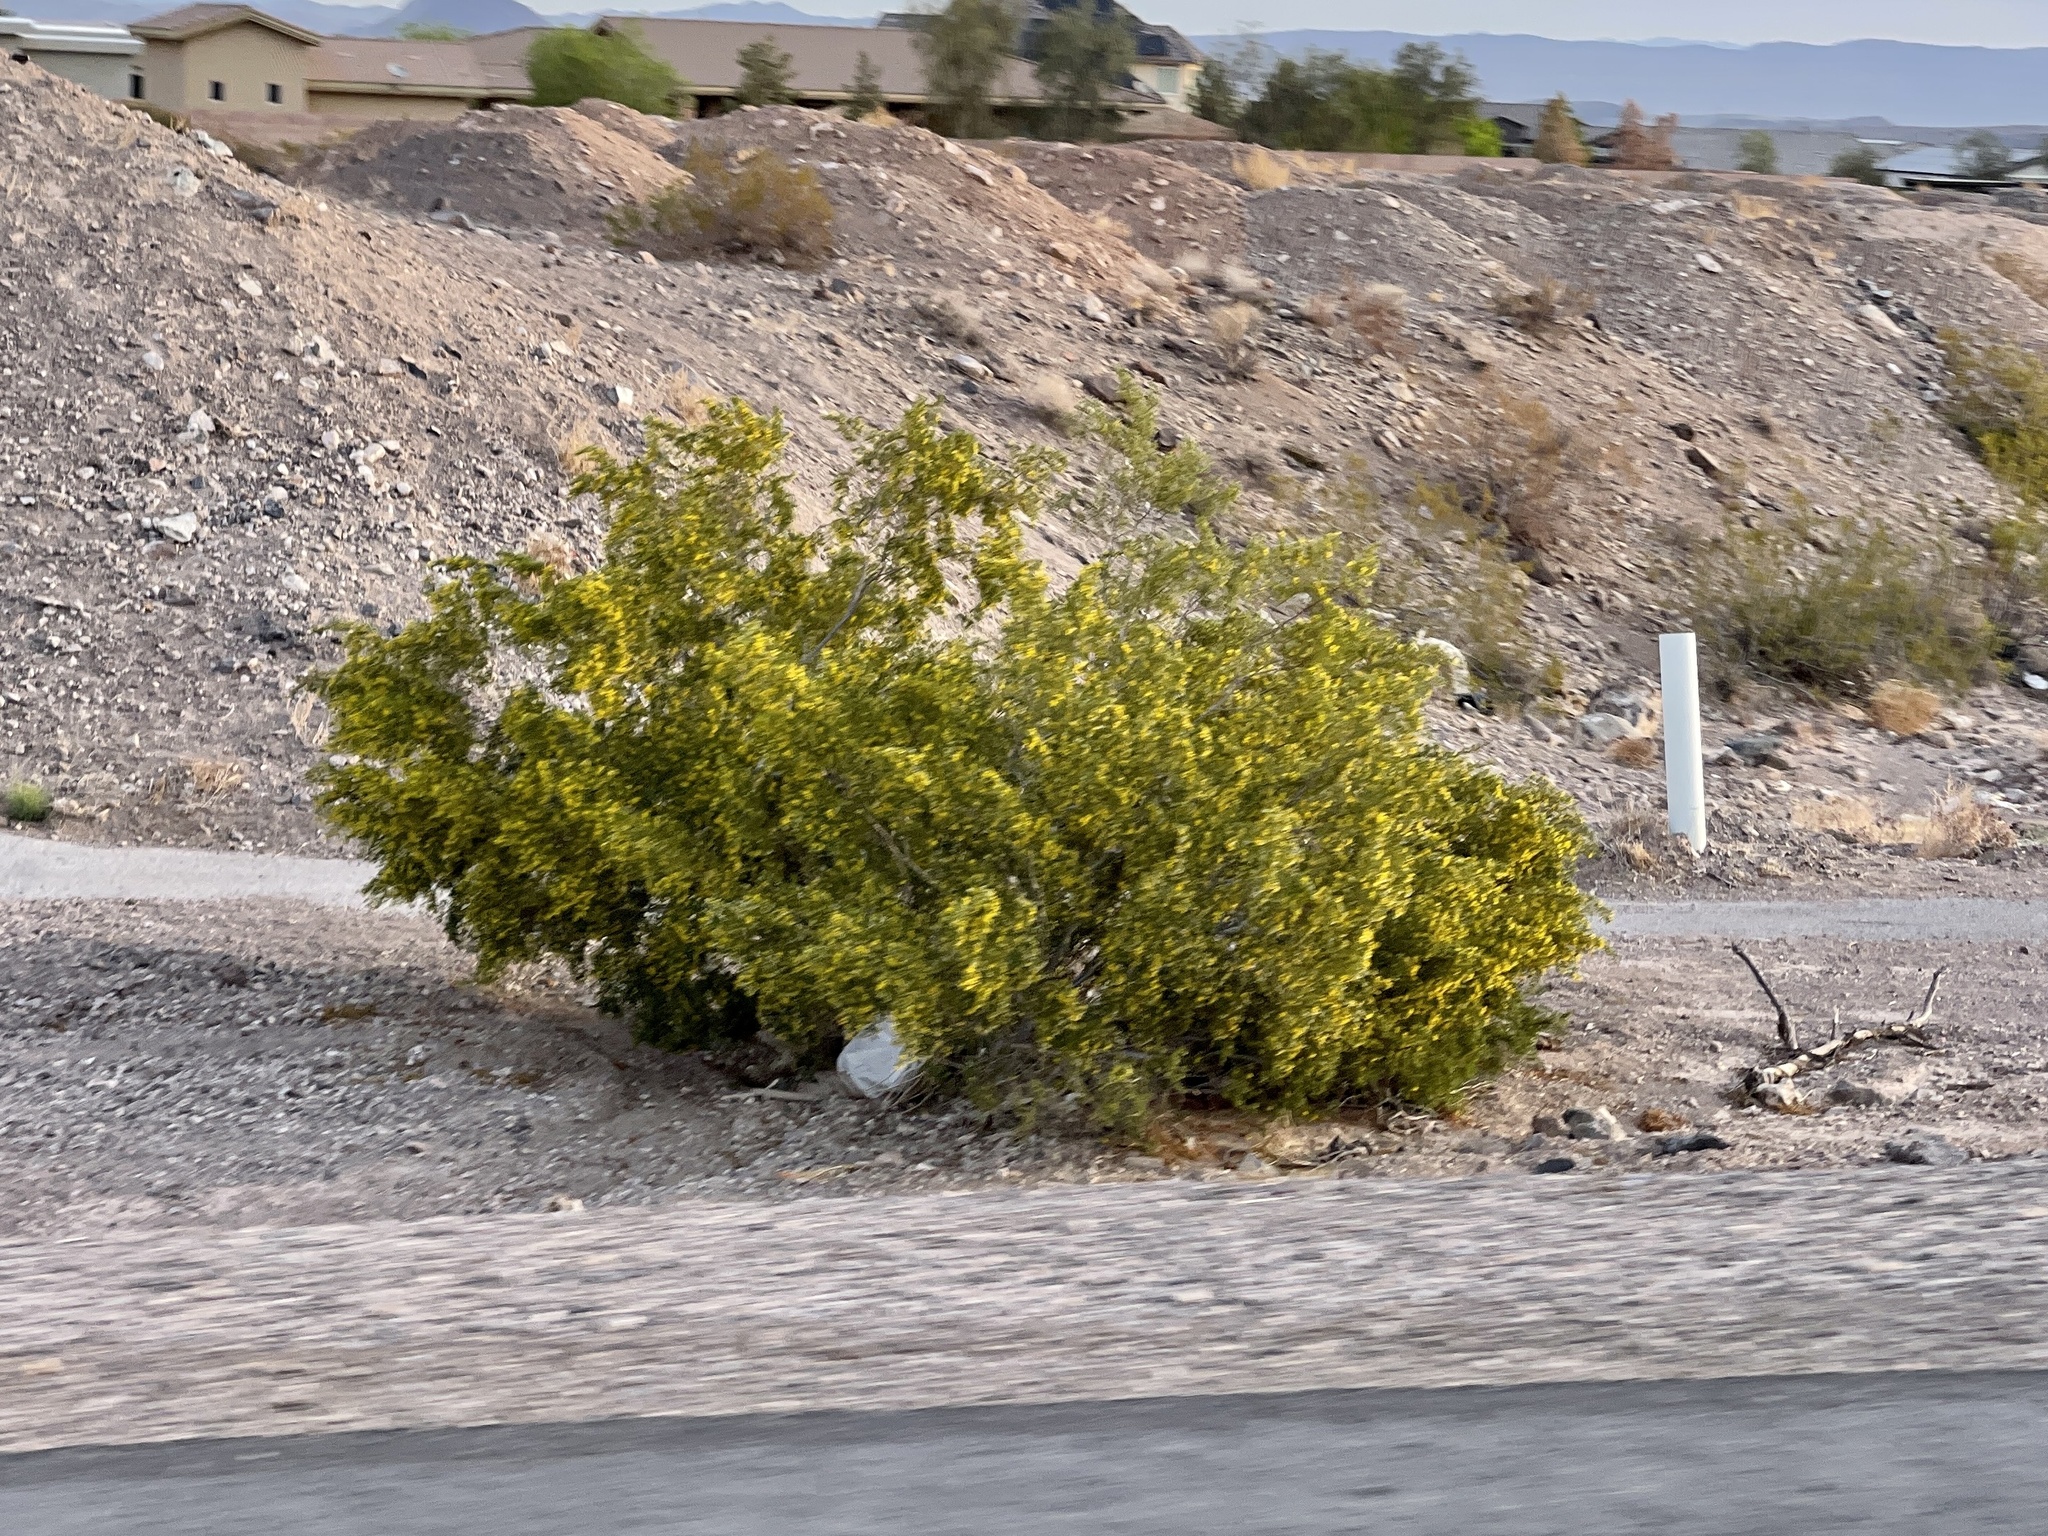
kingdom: Plantae
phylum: Tracheophyta
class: Magnoliopsida
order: Zygophyllales
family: Zygophyllaceae
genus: Larrea
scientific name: Larrea tridentata
